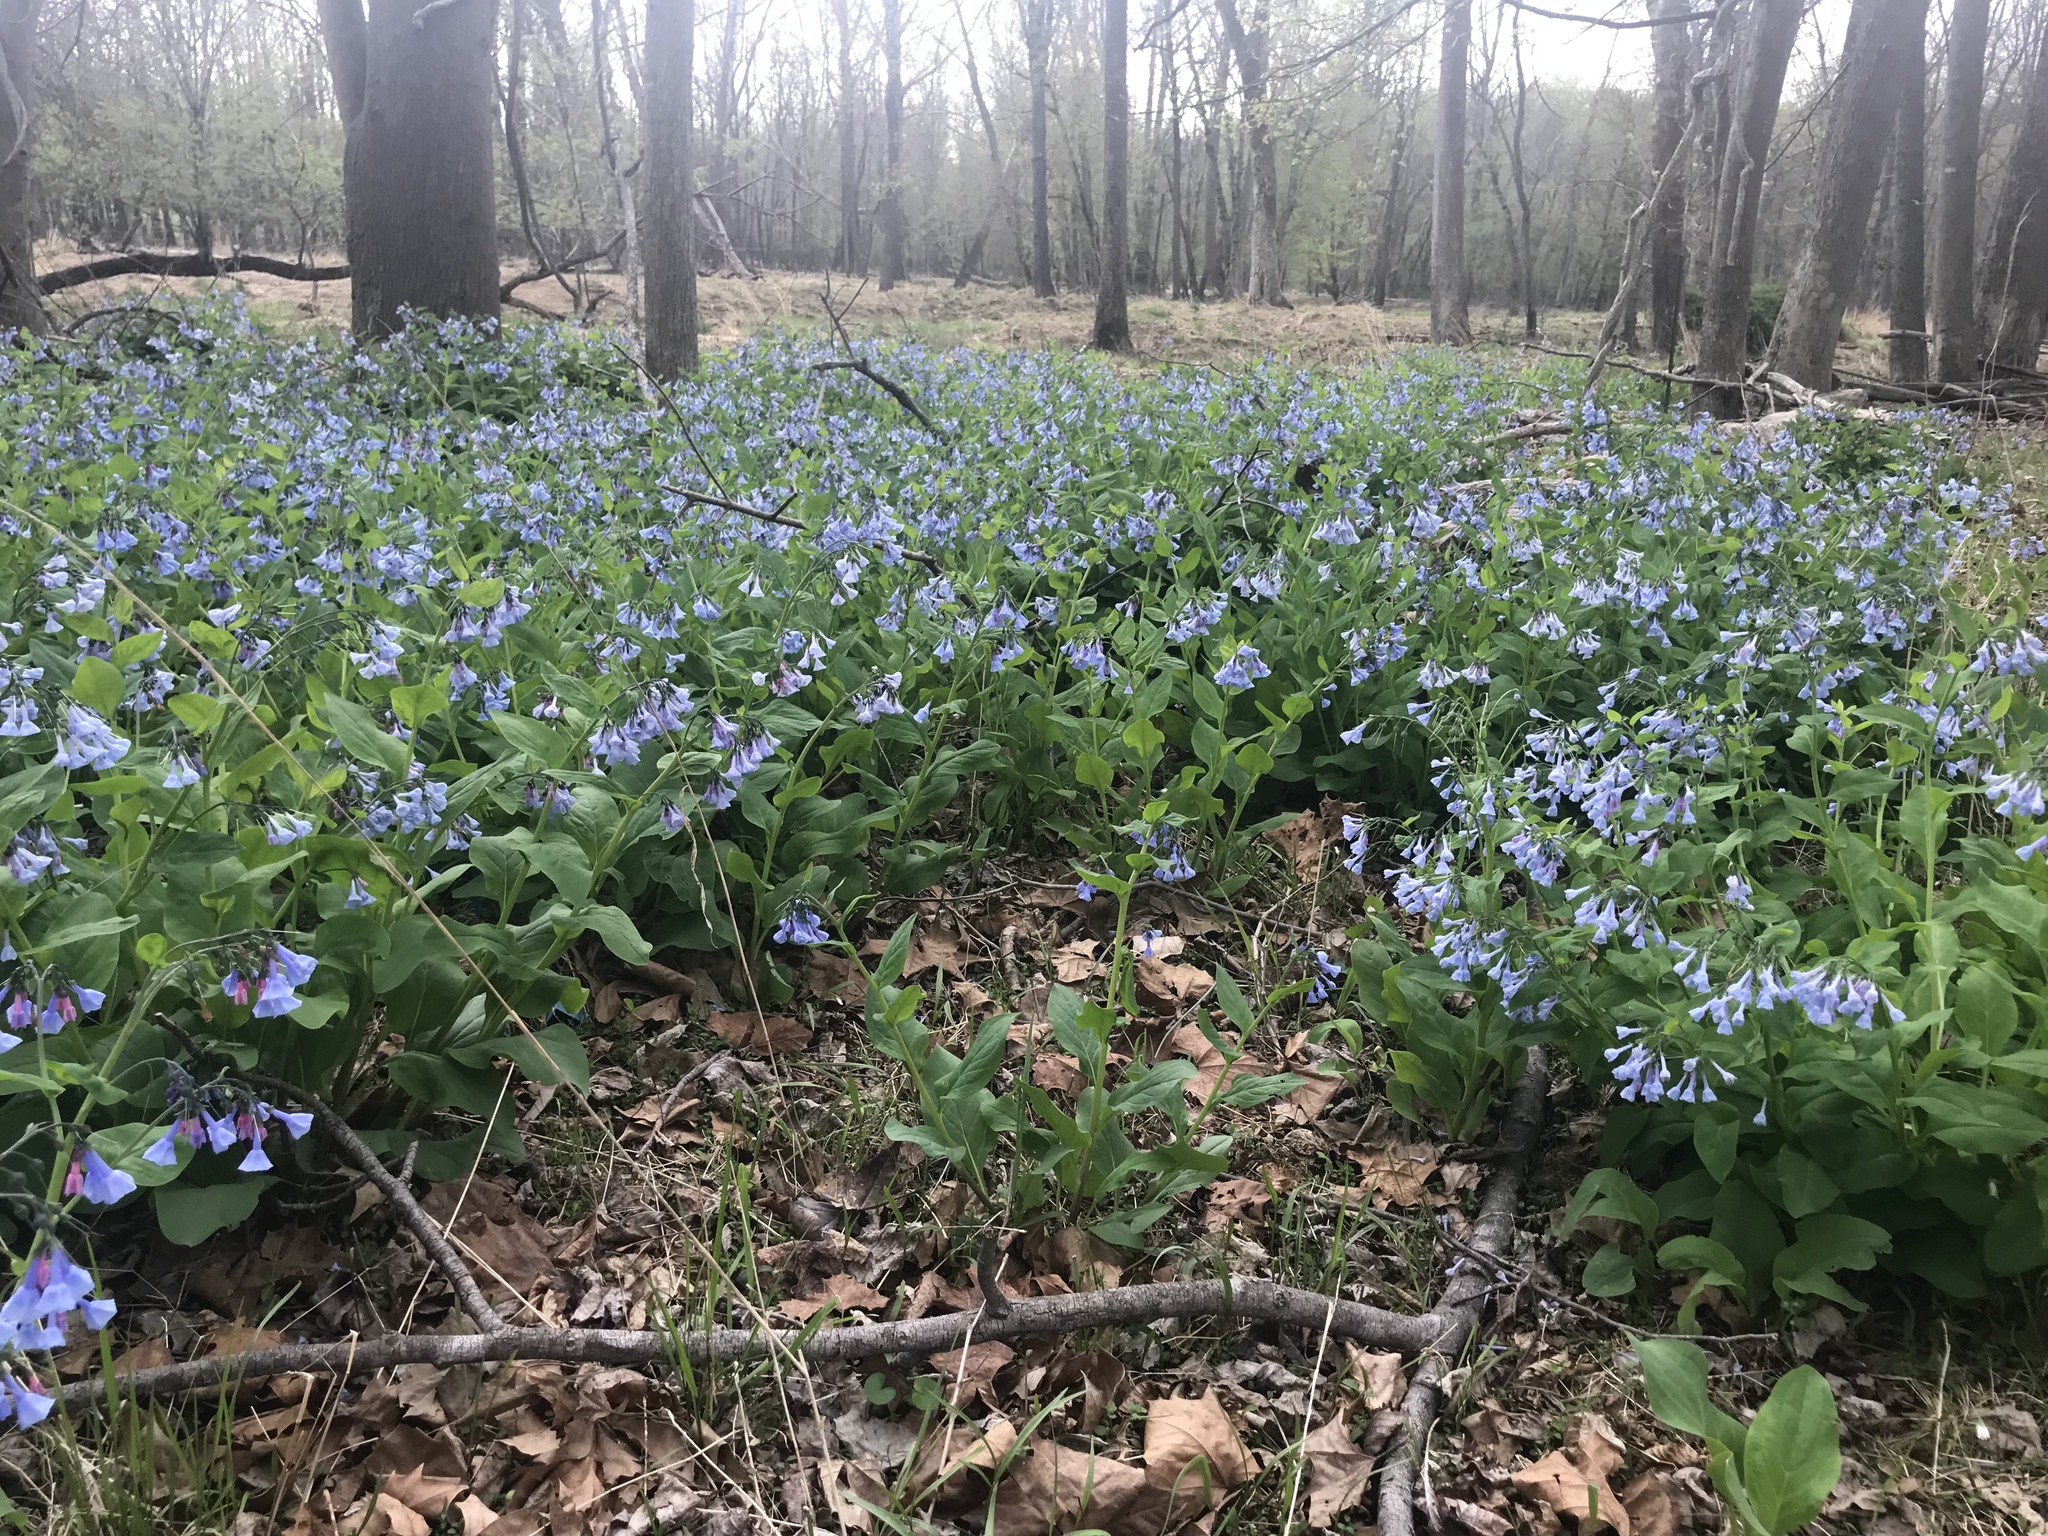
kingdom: Plantae
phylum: Tracheophyta
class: Magnoliopsida
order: Boraginales
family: Boraginaceae
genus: Mertensia
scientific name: Mertensia virginica
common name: Virginia bluebells
